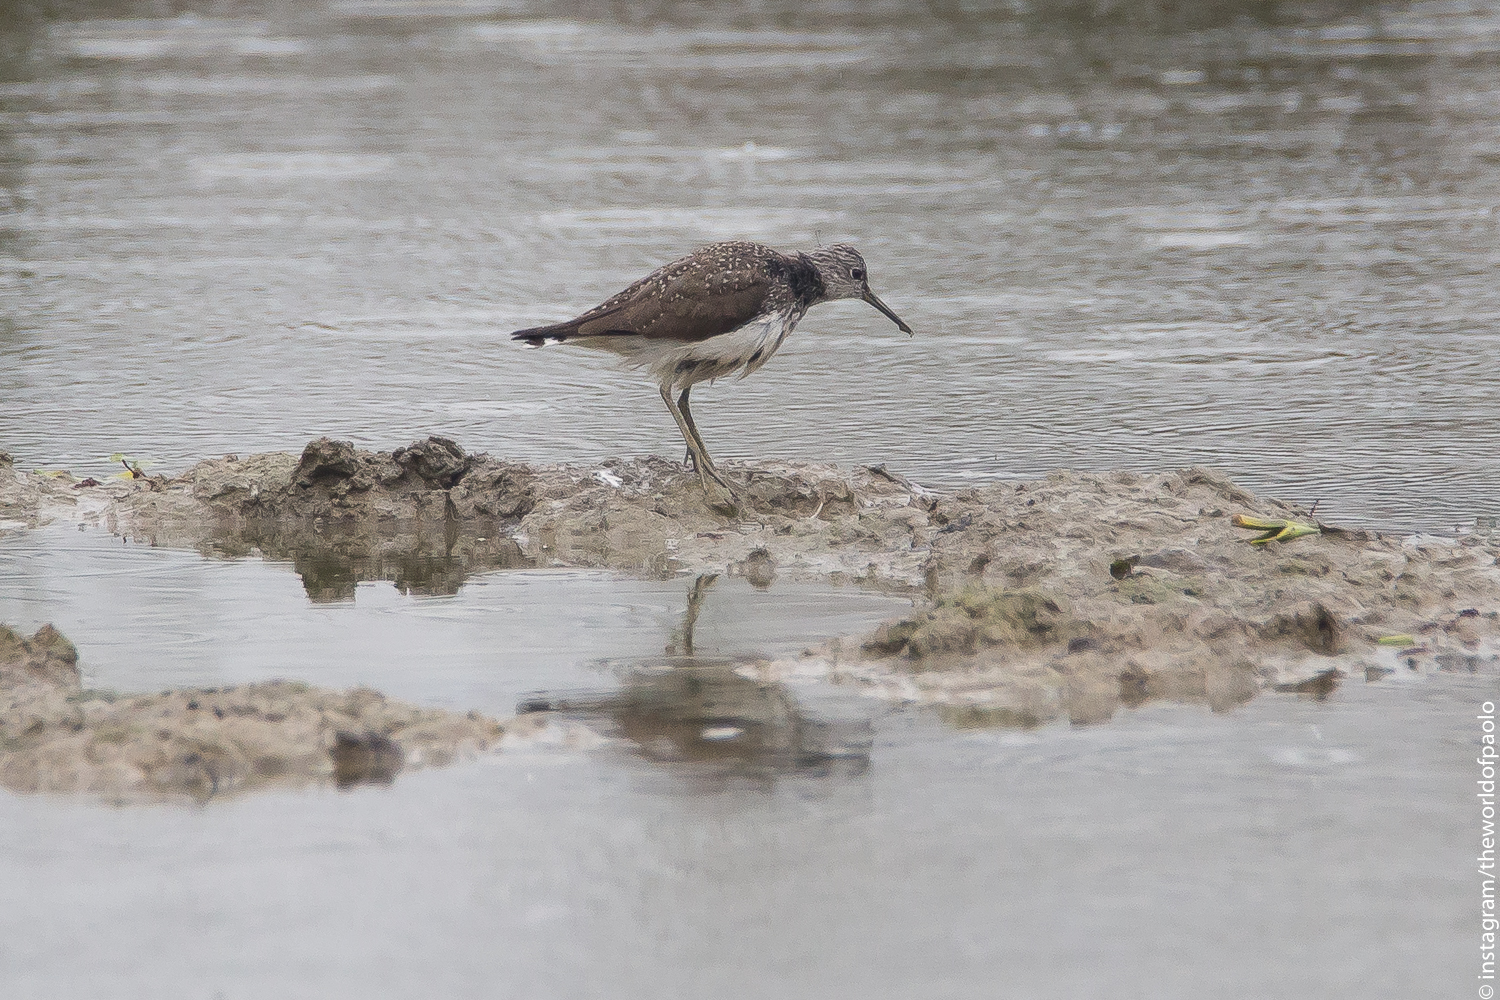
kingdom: Animalia
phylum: Chordata
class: Aves
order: Charadriiformes
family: Scolopacidae
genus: Tringa
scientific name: Tringa ochropus
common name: Green sandpiper
